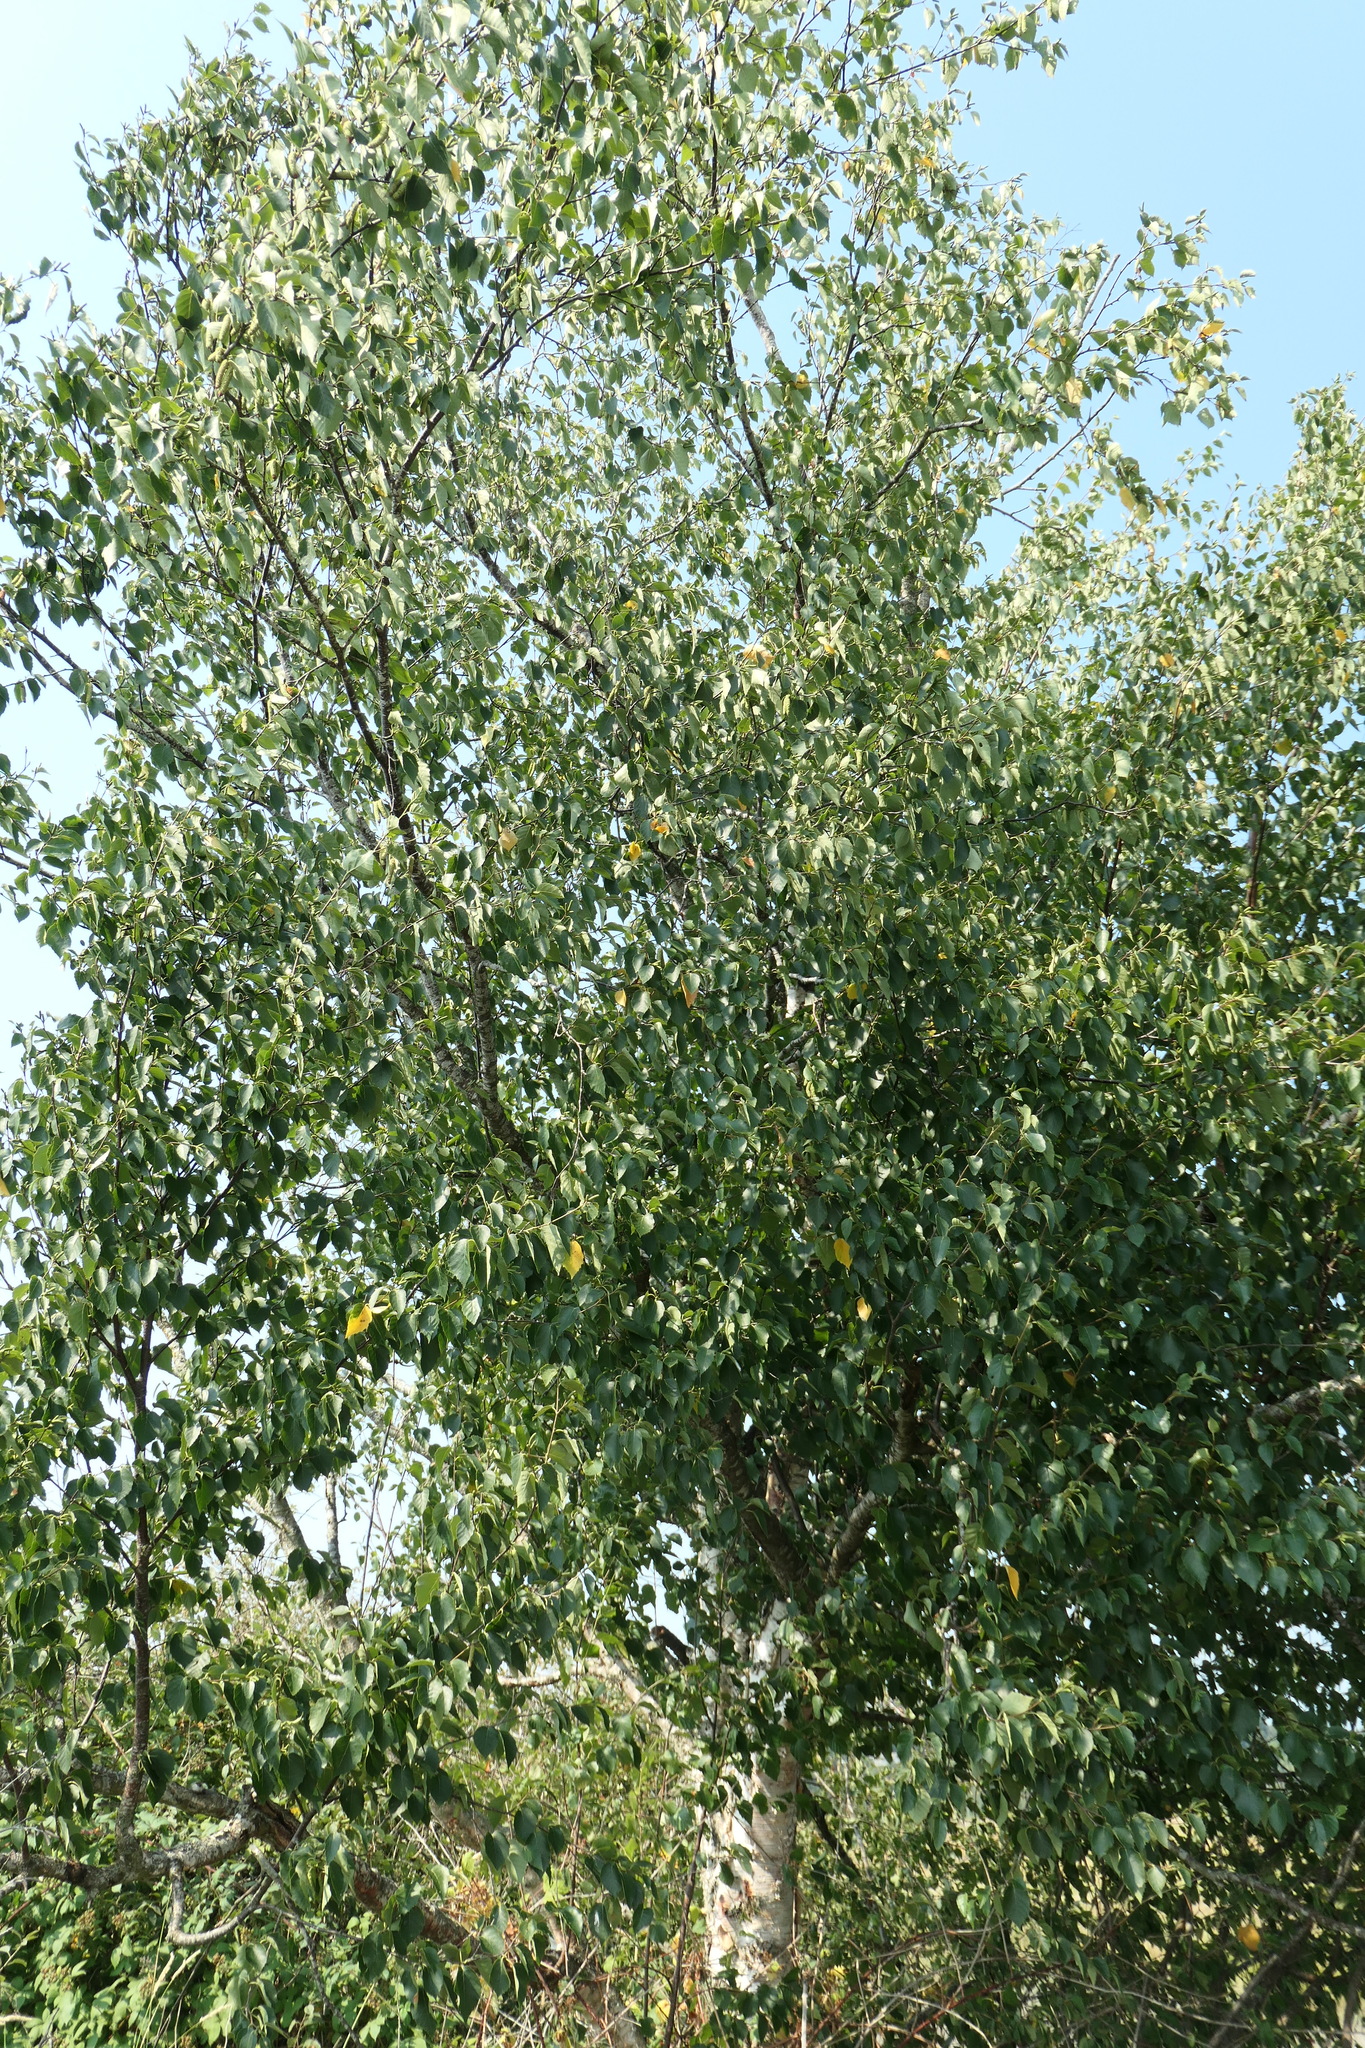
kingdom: Plantae
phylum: Tracheophyta
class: Magnoliopsida
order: Fagales
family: Betulaceae
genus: Betula
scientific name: Betula papyrifera
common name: Paper birch
